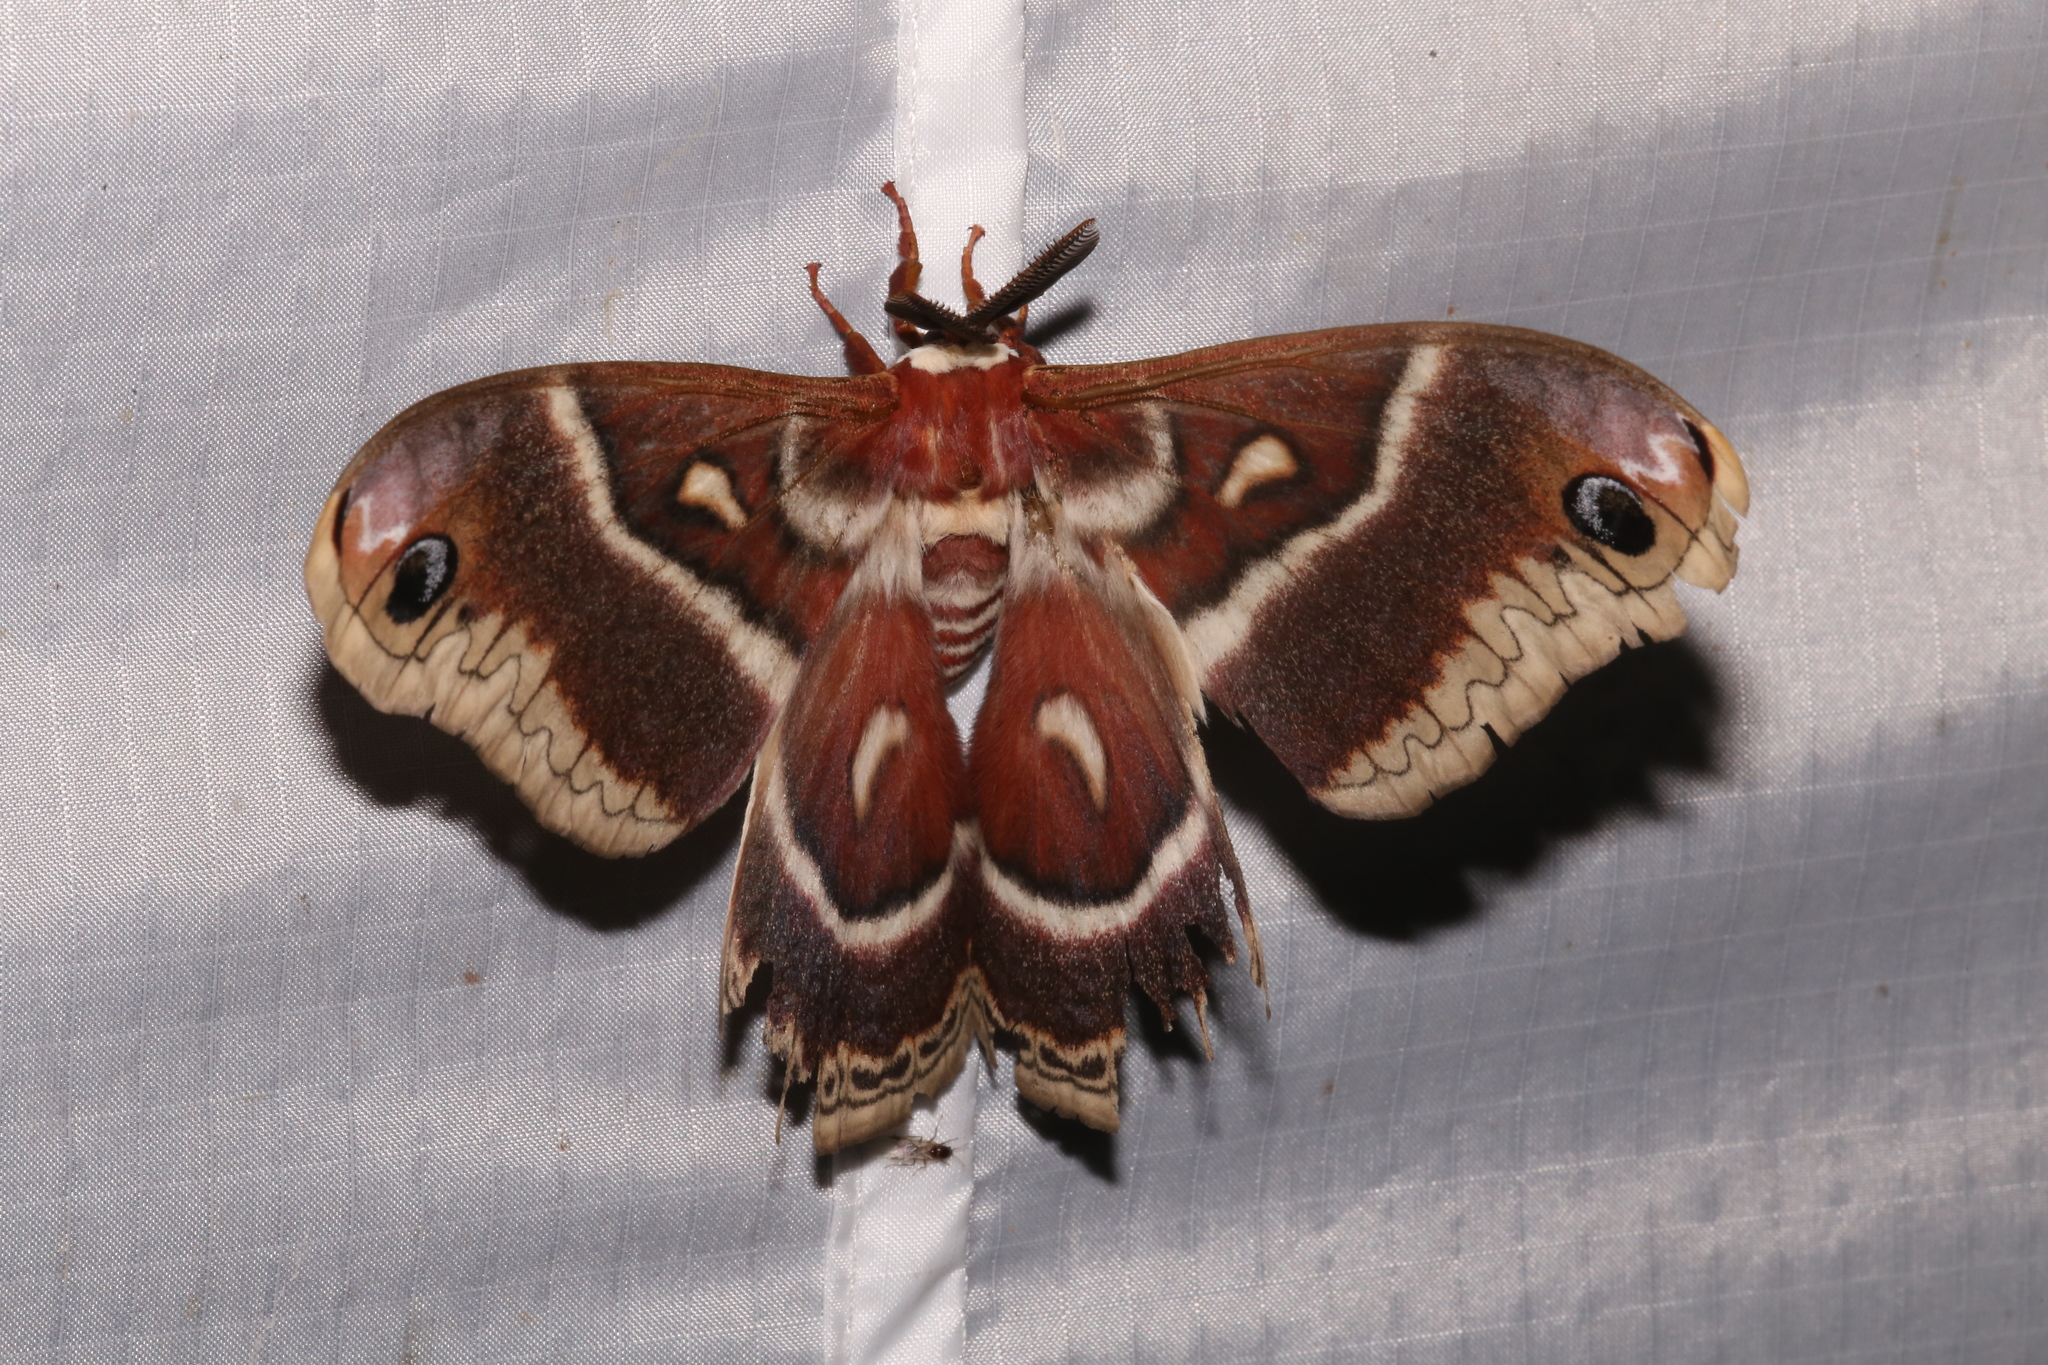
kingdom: Animalia
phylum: Arthropoda
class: Insecta
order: Lepidoptera
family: Saturniidae
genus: Hyalophora
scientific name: Hyalophora gloveri
